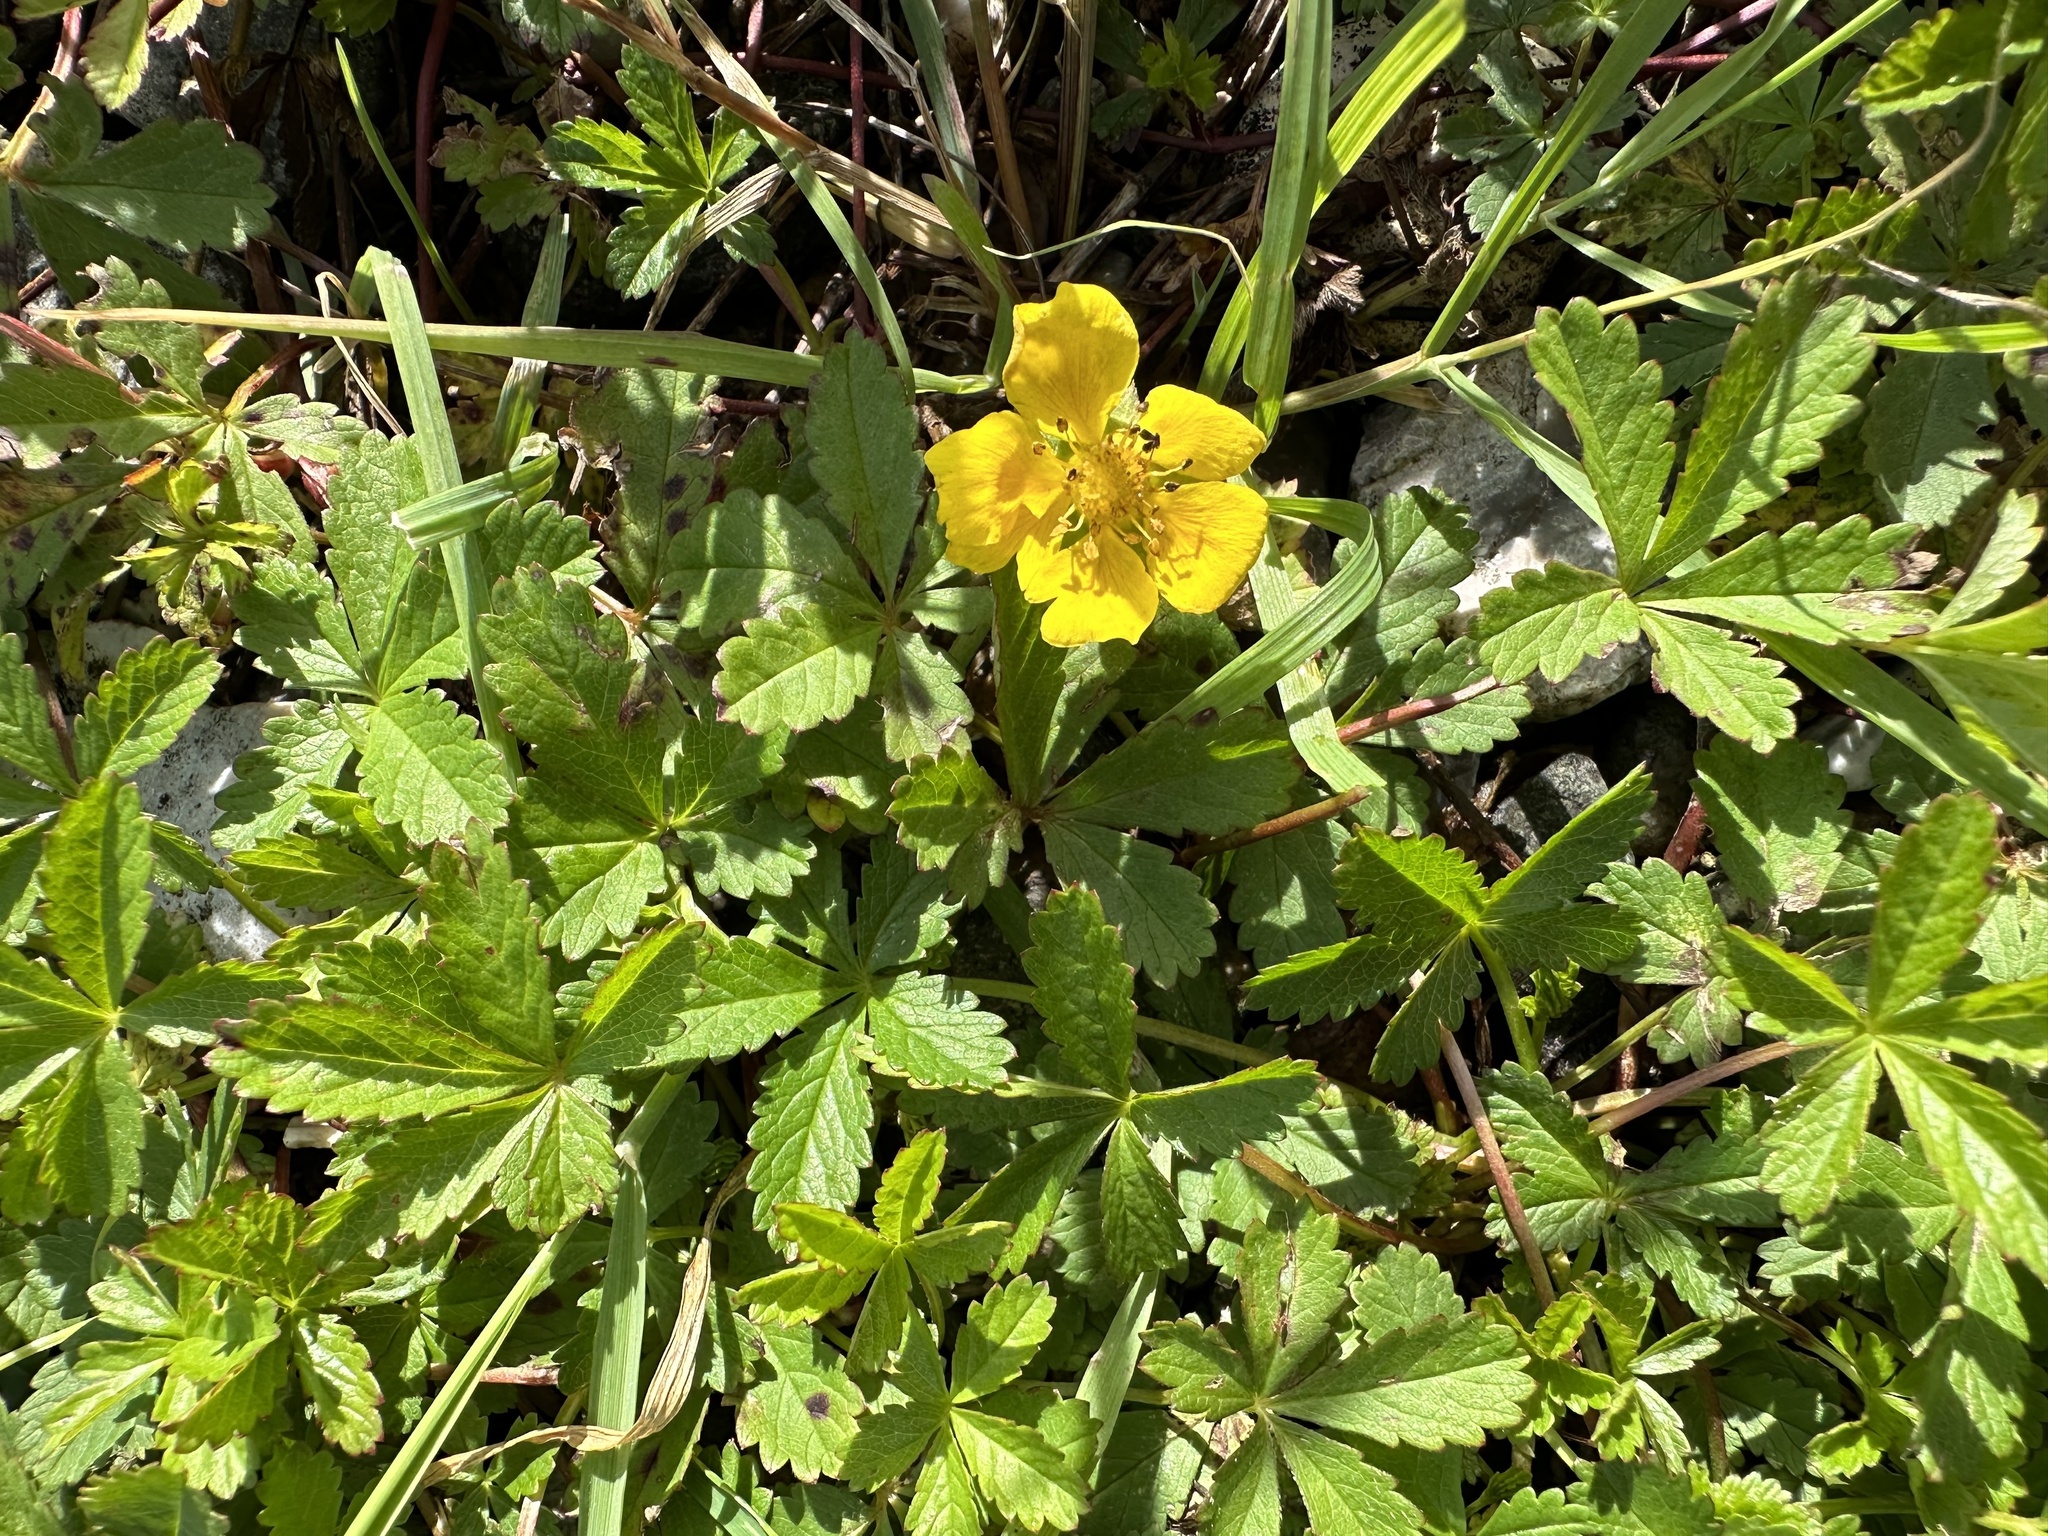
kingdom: Plantae
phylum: Tracheophyta
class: Magnoliopsida
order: Rosales
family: Rosaceae
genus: Potentilla
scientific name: Potentilla reptans
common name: Creeping cinquefoil
